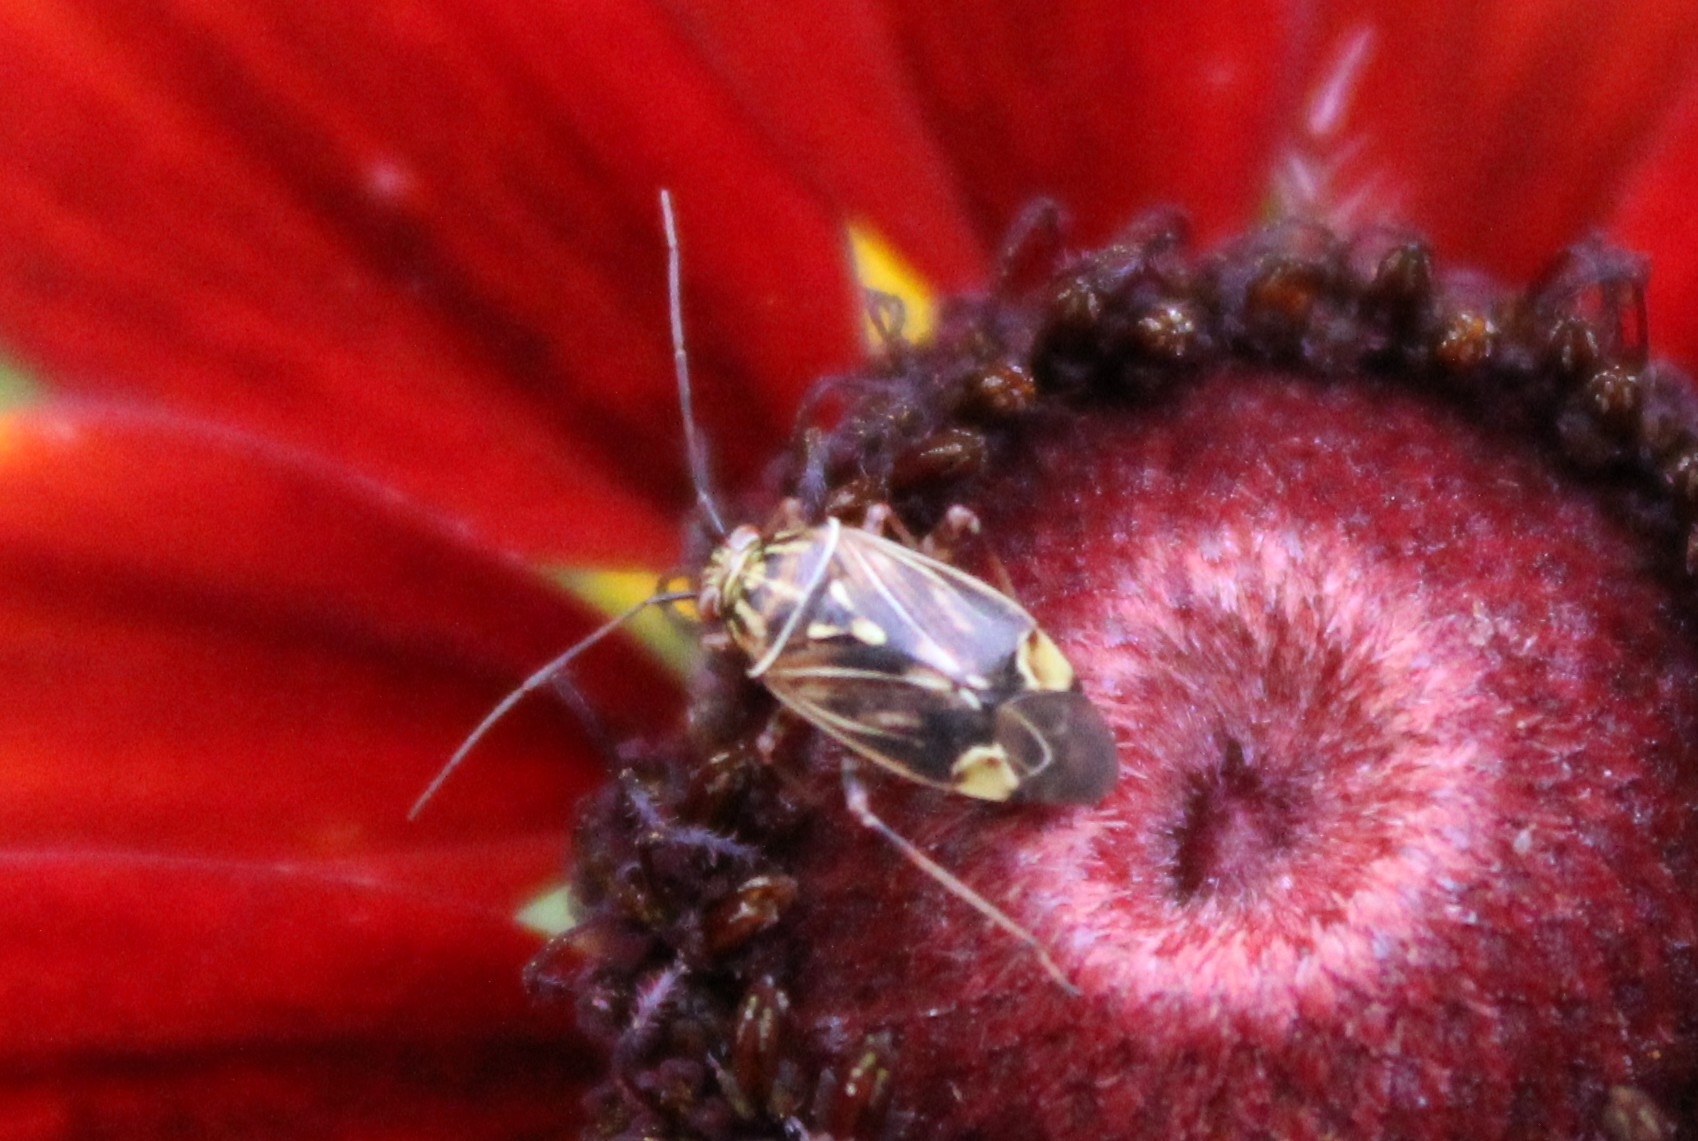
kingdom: Animalia
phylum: Arthropoda
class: Insecta
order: Hemiptera
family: Miridae
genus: Lygus
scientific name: Lygus lineolaris
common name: North american tarnished plant bug
